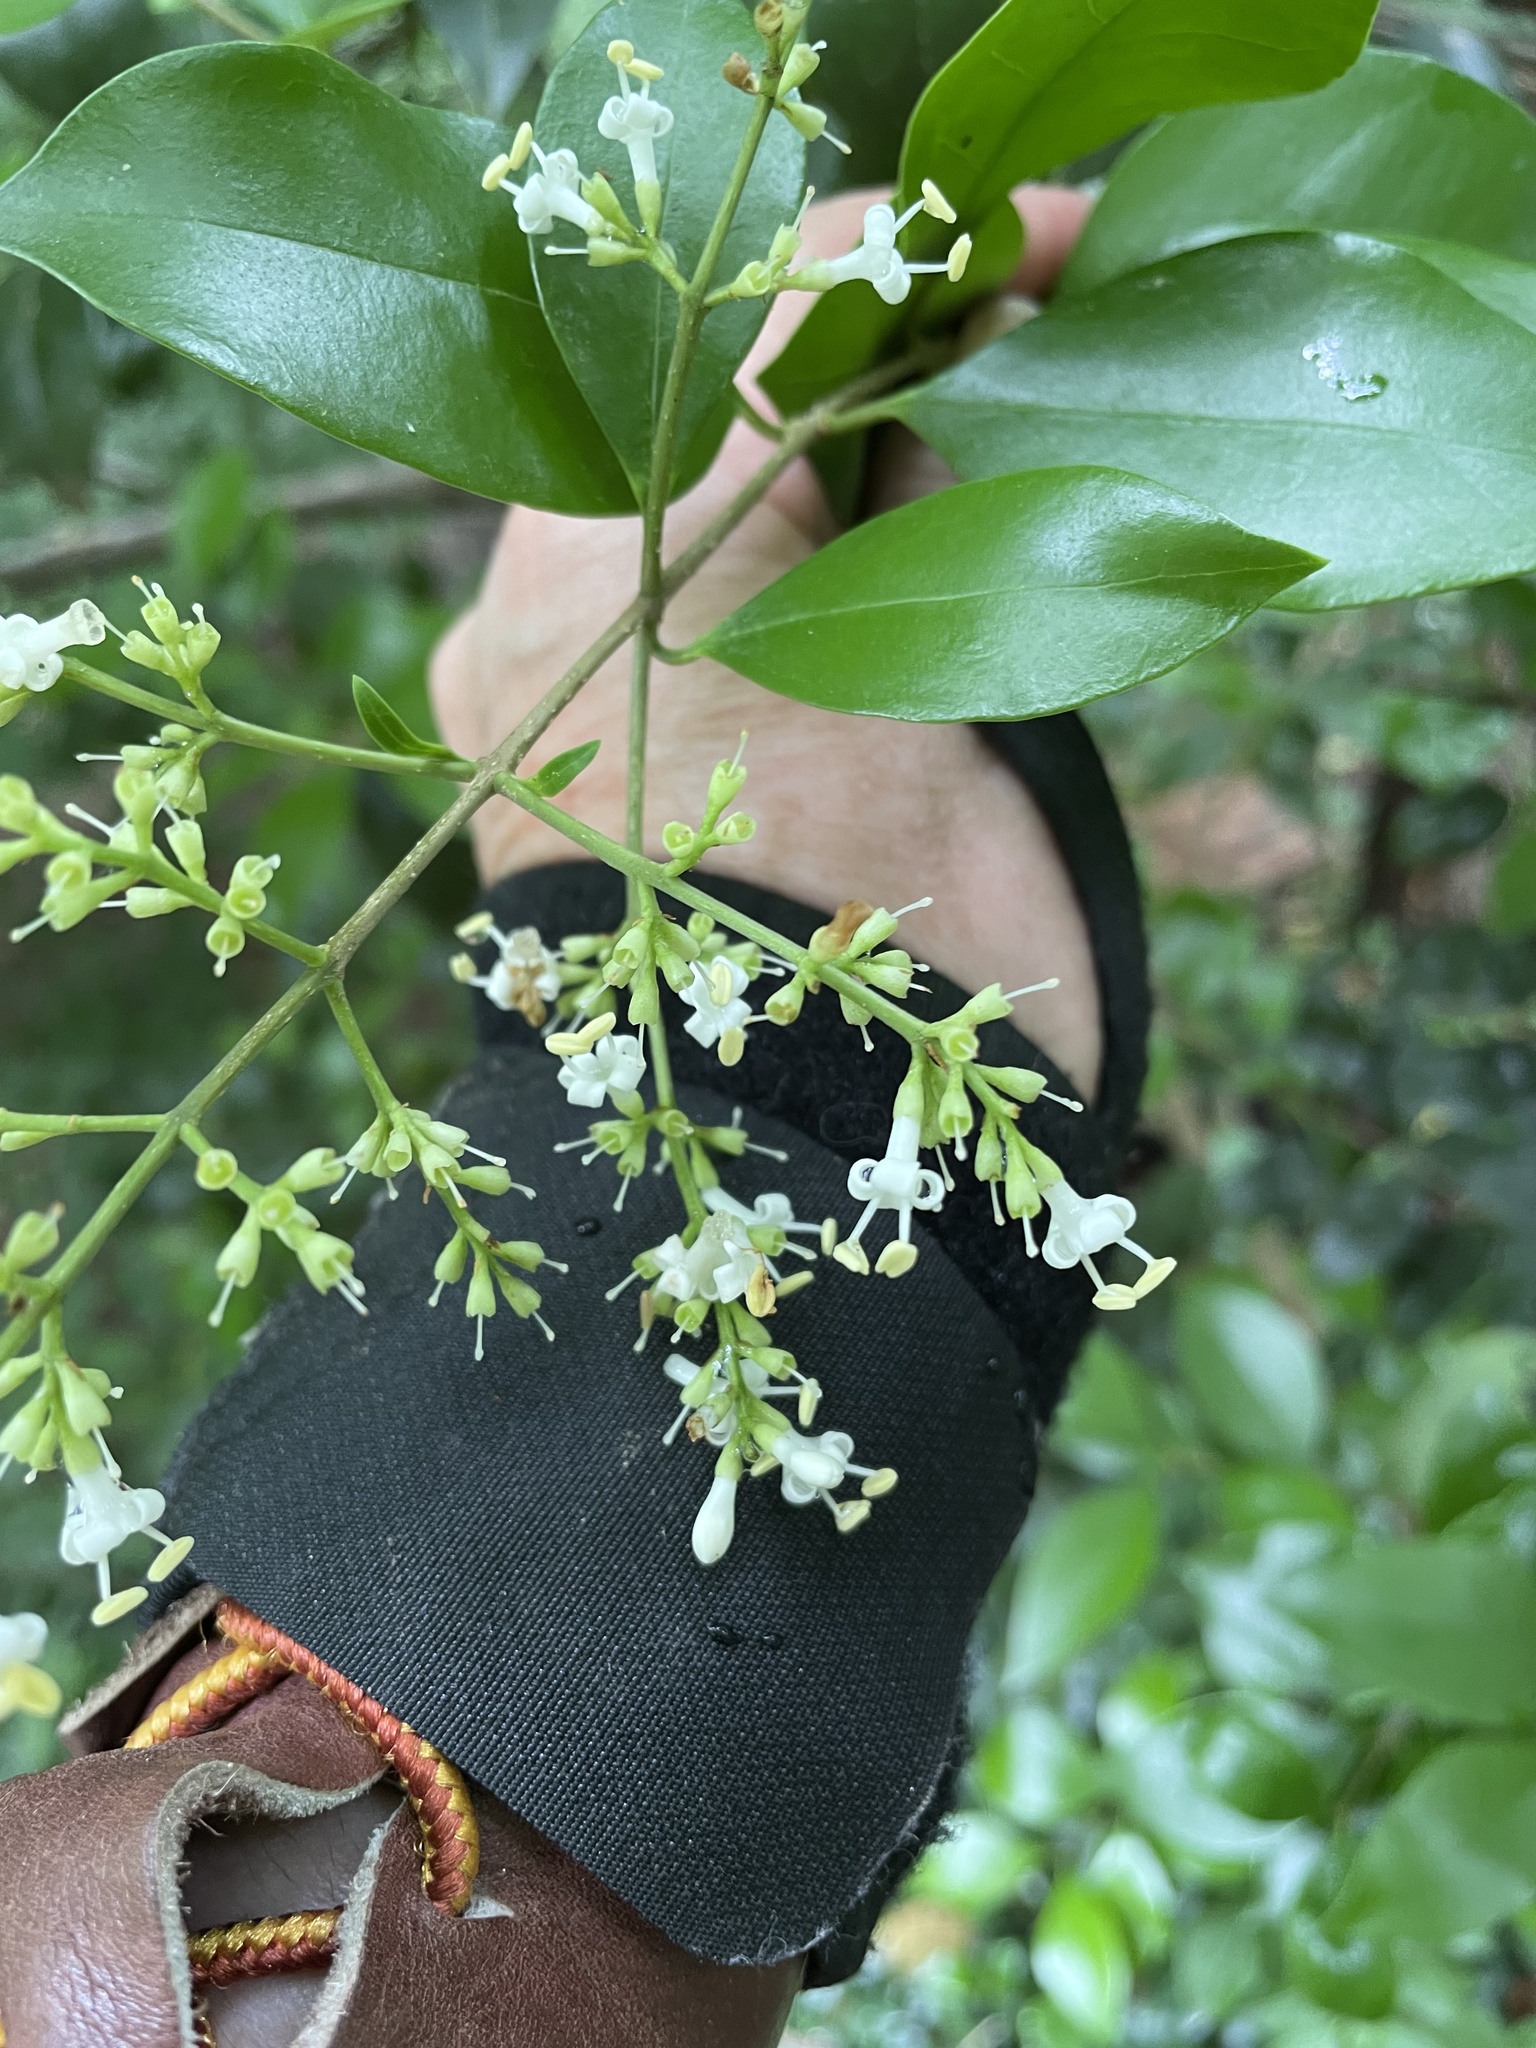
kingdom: Plantae
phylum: Tracheophyta
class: Magnoliopsida
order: Lamiales
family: Oleaceae
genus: Ligustrum
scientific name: Ligustrum japonicum
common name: Japanese privet
